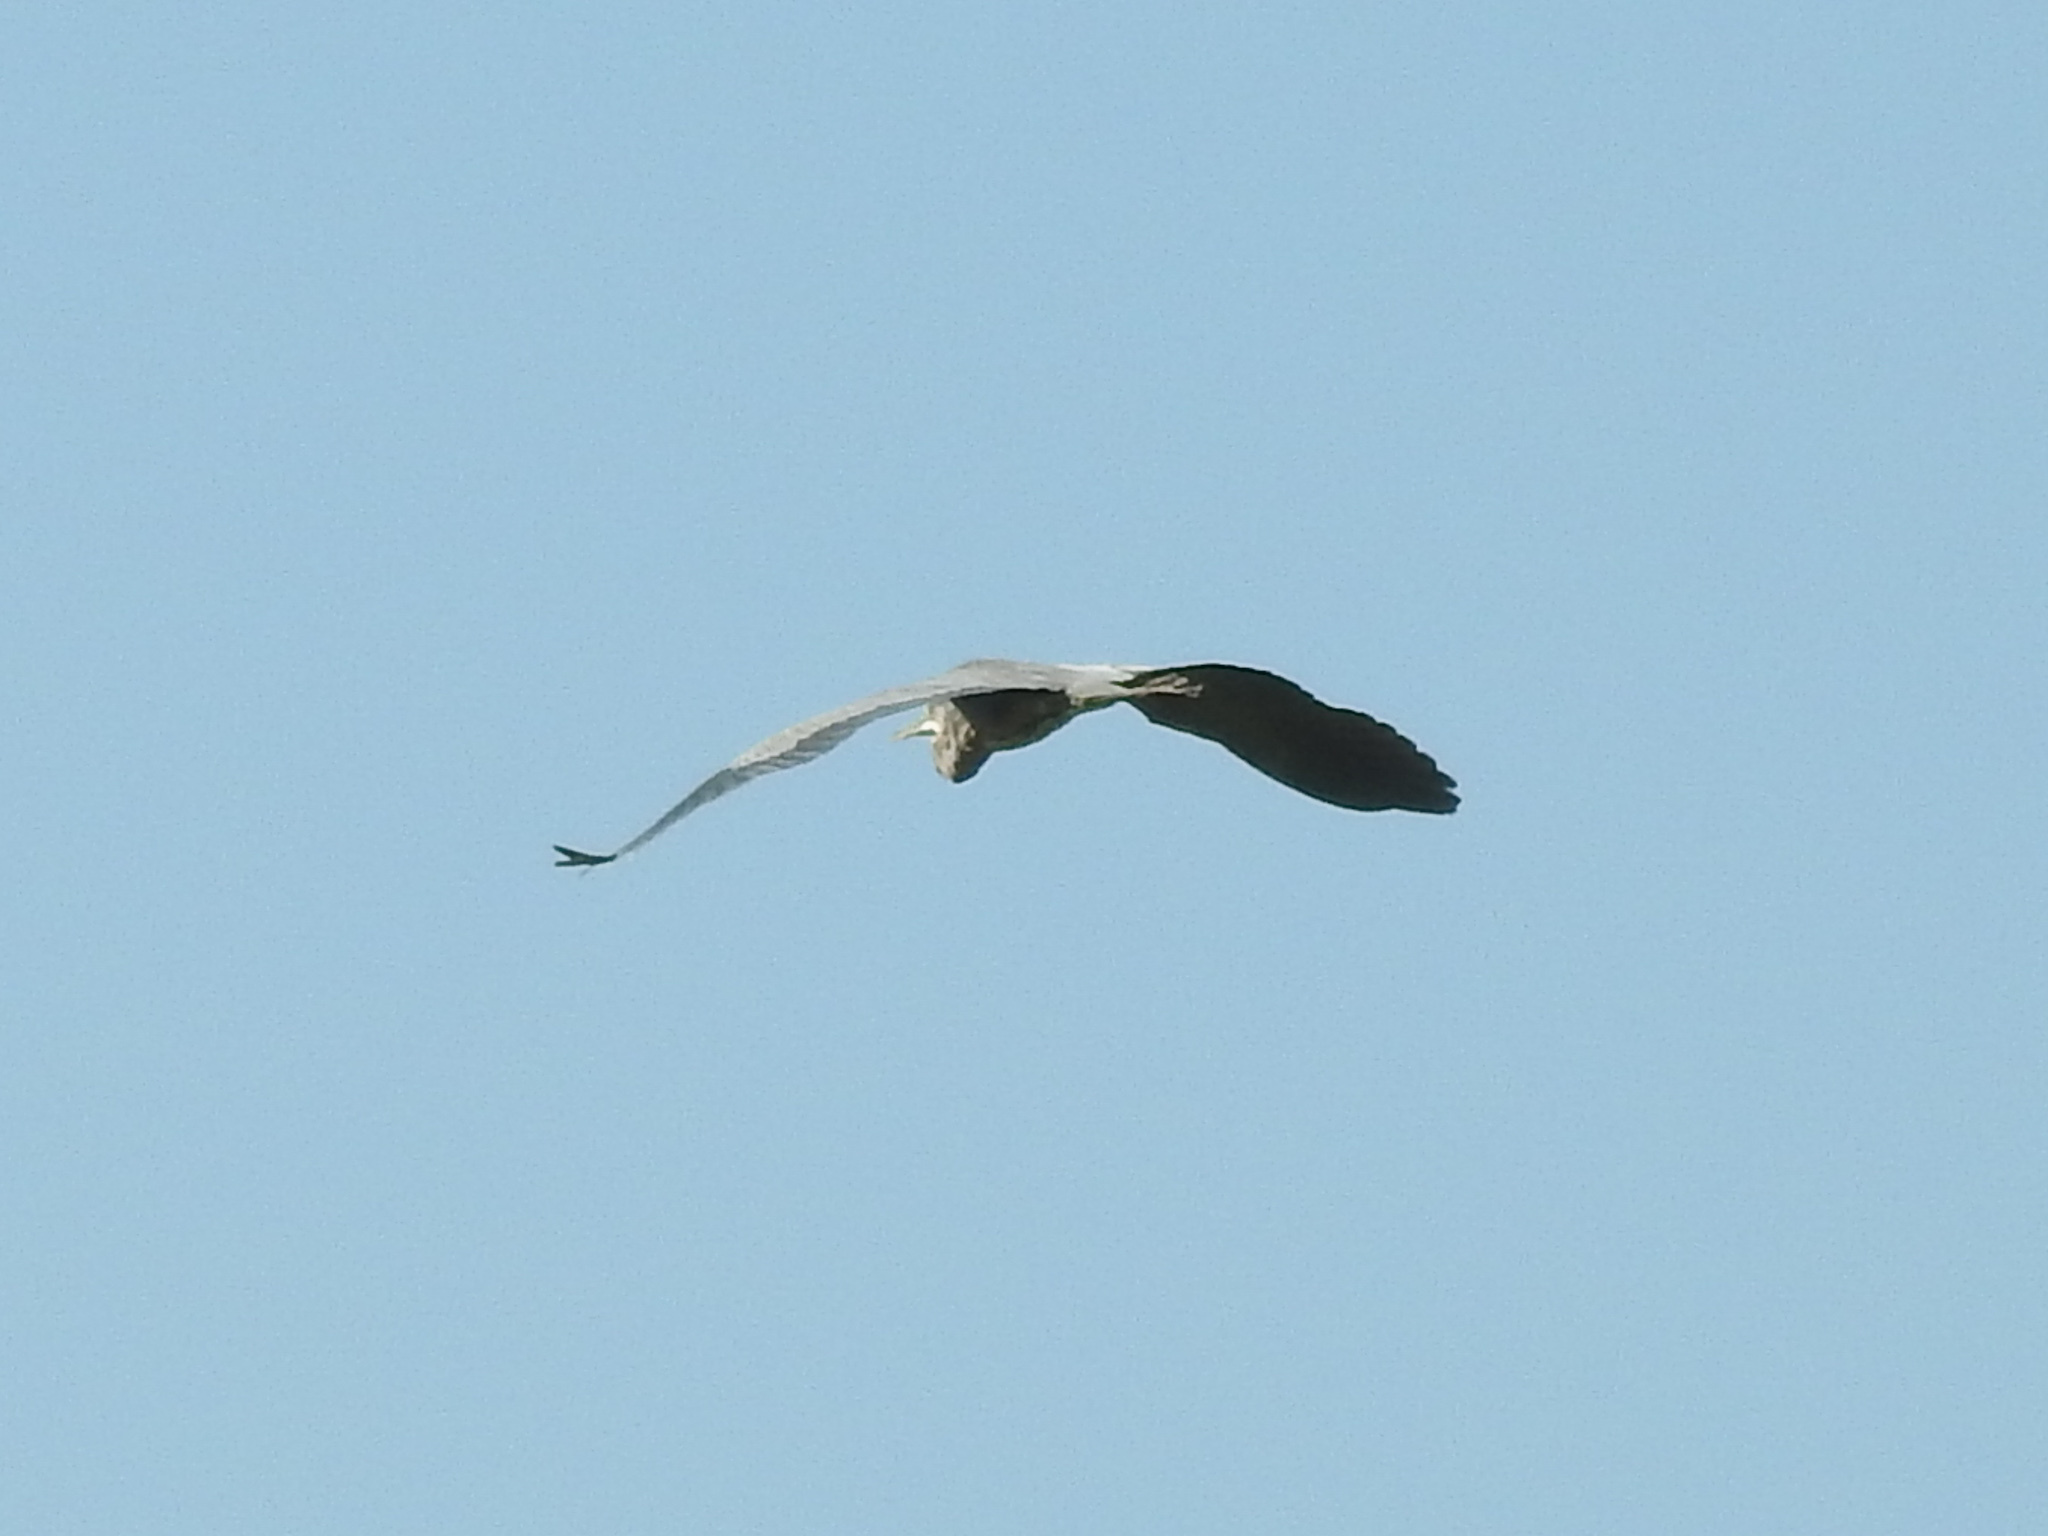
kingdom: Animalia
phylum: Chordata
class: Aves
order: Pelecaniformes
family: Ardeidae
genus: Ardea
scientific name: Ardea herodias
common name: Great blue heron
